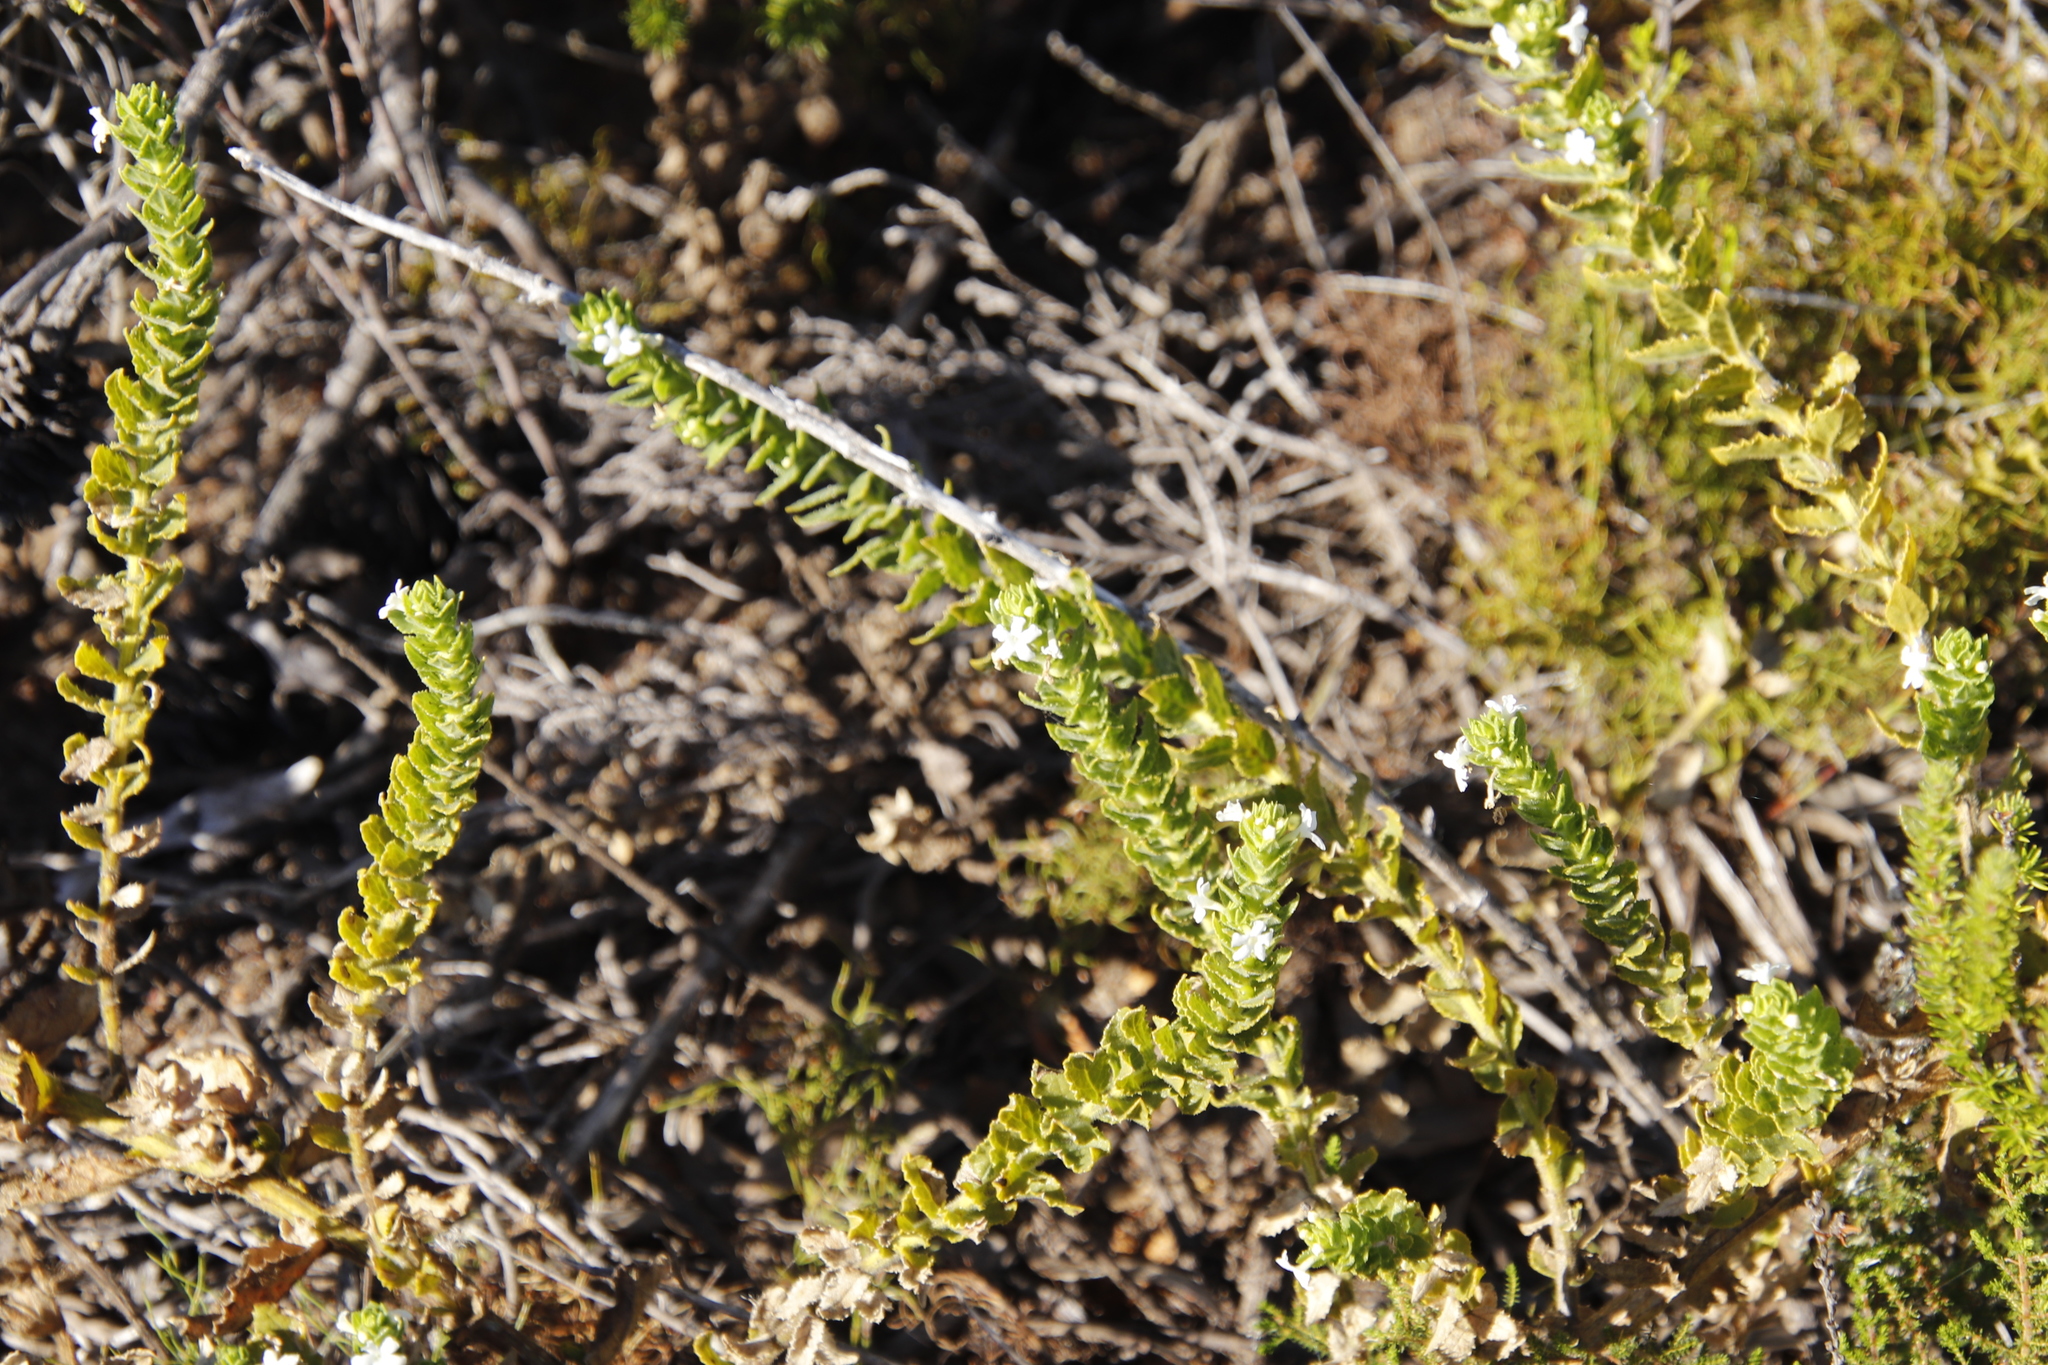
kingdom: Plantae
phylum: Tracheophyta
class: Magnoliopsida
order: Lamiales
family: Scrophulariaceae
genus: Oftia
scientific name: Oftia africana
